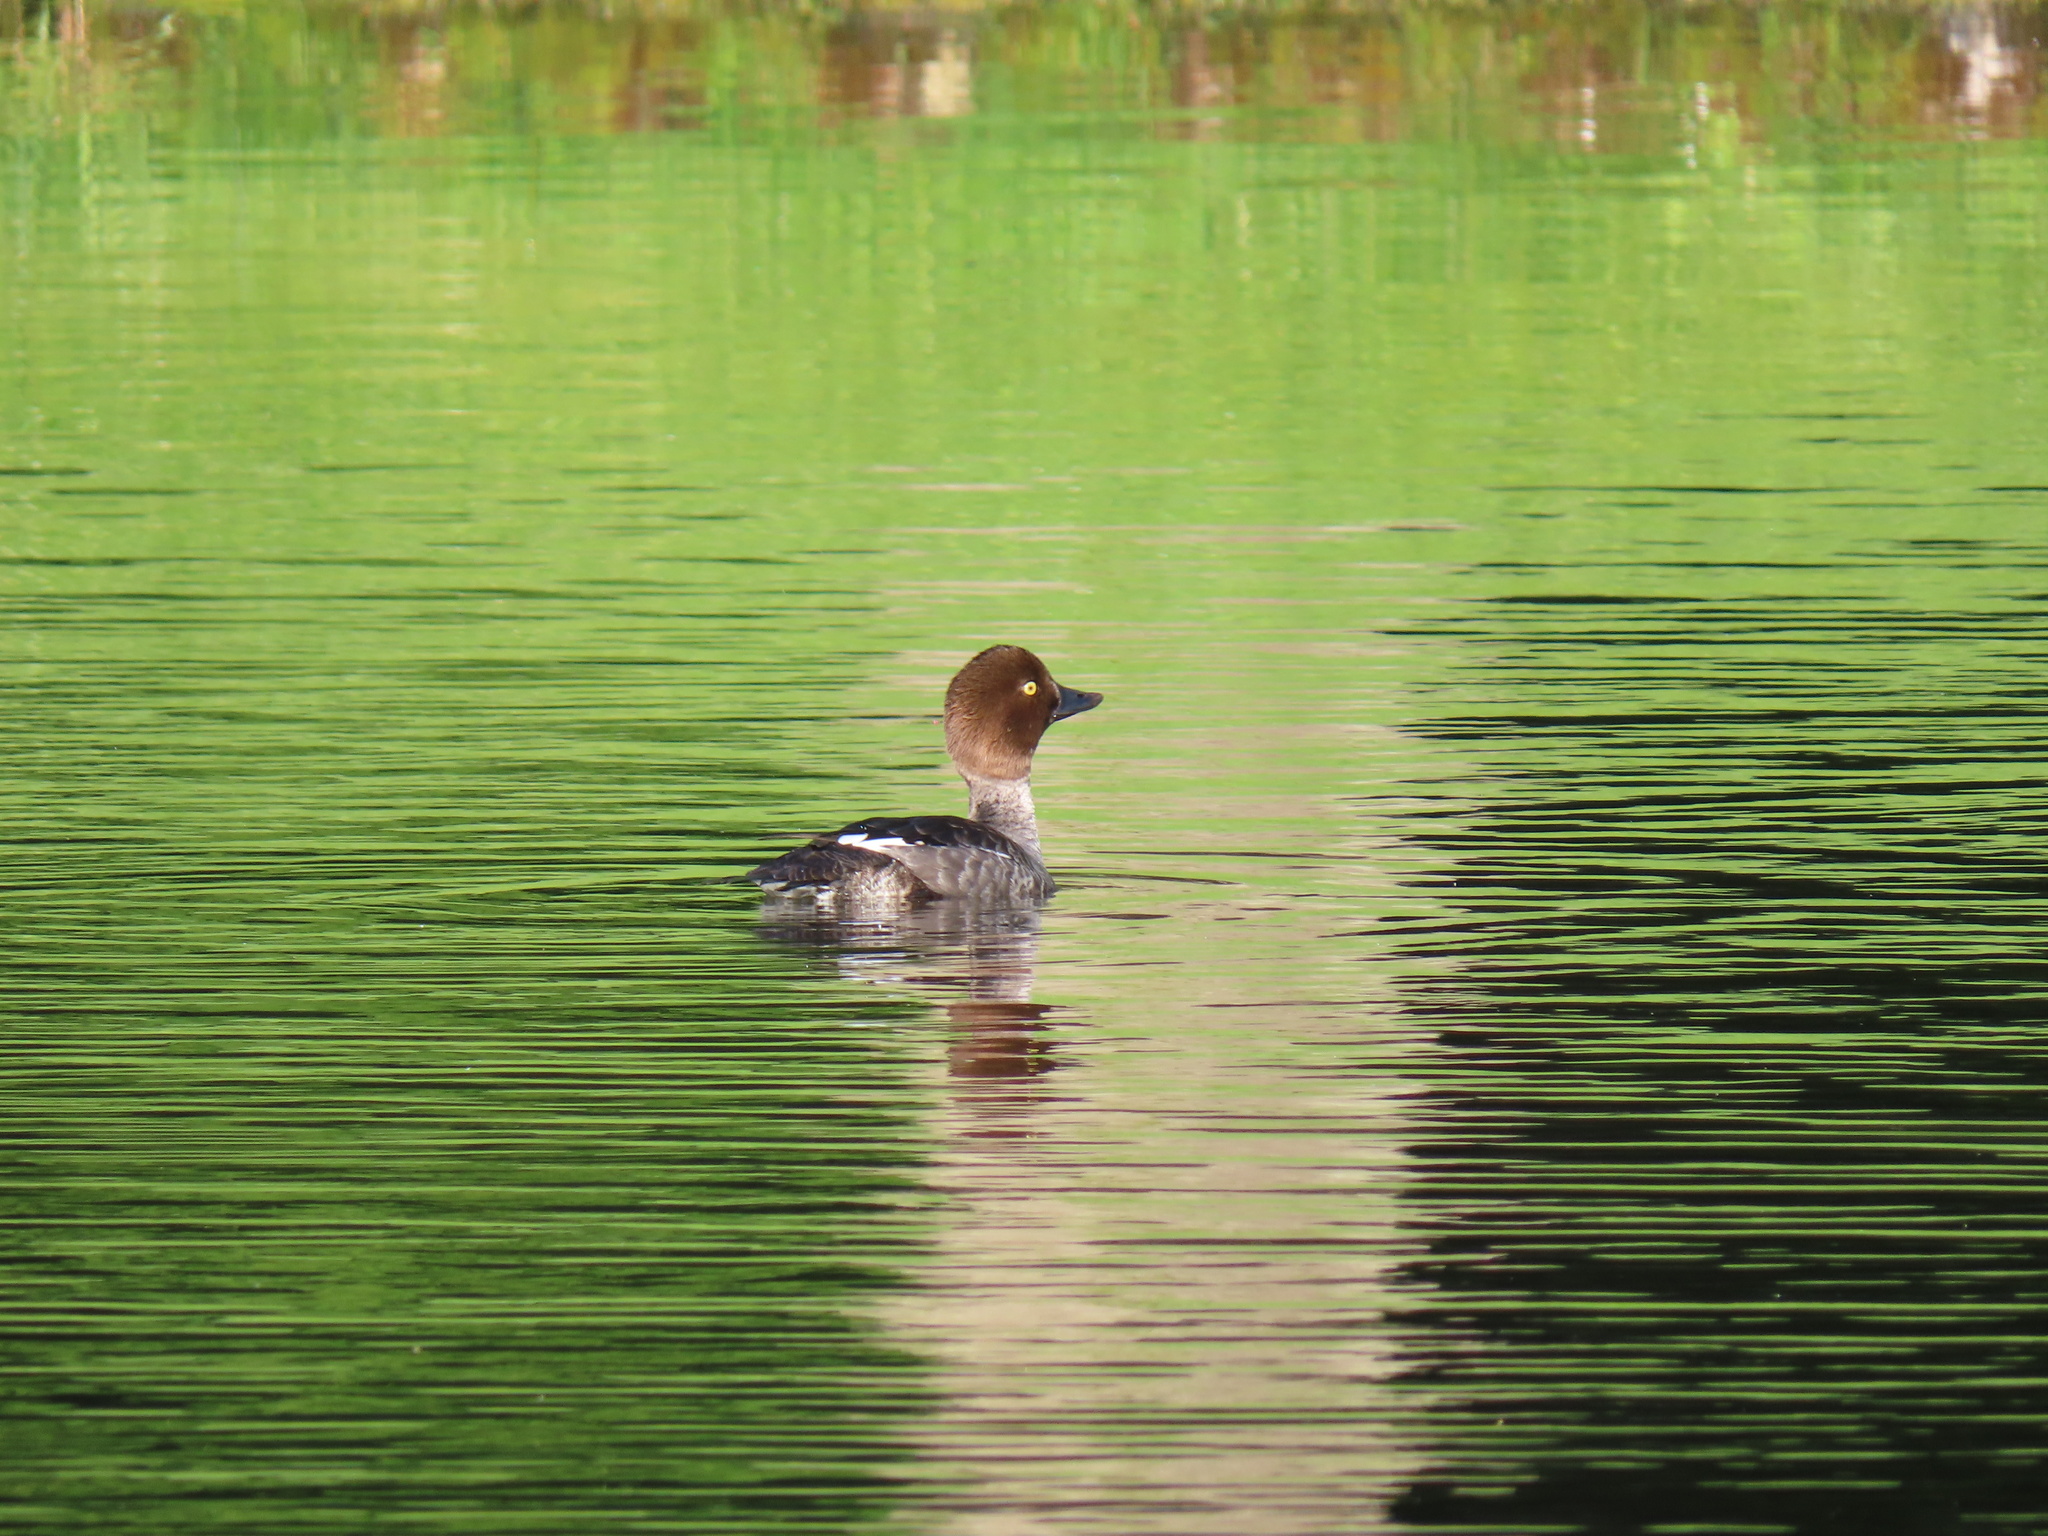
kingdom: Animalia
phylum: Chordata
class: Aves
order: Anseriformes
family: Anatidae
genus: Bucephala
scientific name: Bucephala clangula
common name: Common goldeneye
